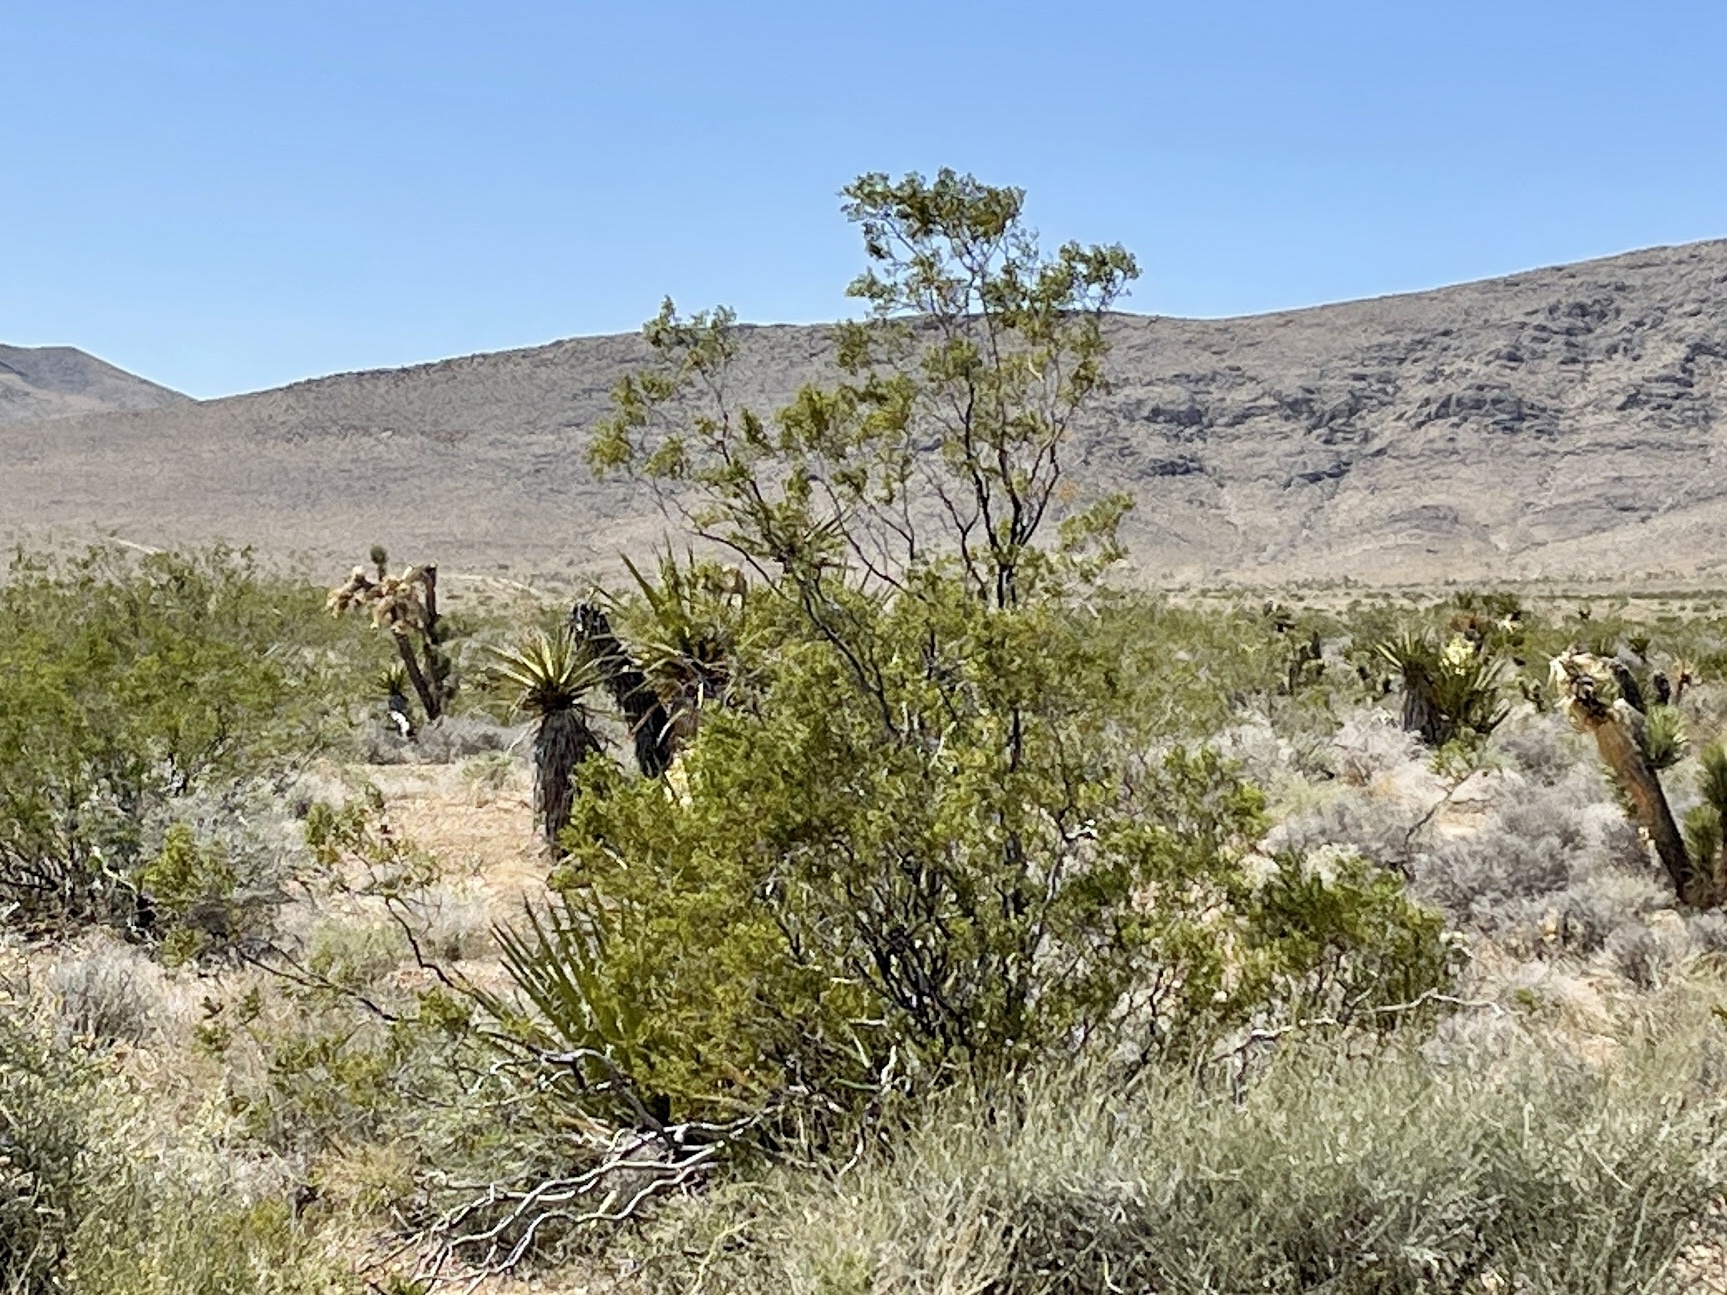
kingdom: Plantae
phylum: Tracheophyta
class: Magnoliopsida
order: Zygophyllales
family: Zygophyllaceae
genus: Larrea
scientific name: Larrea tridentata
